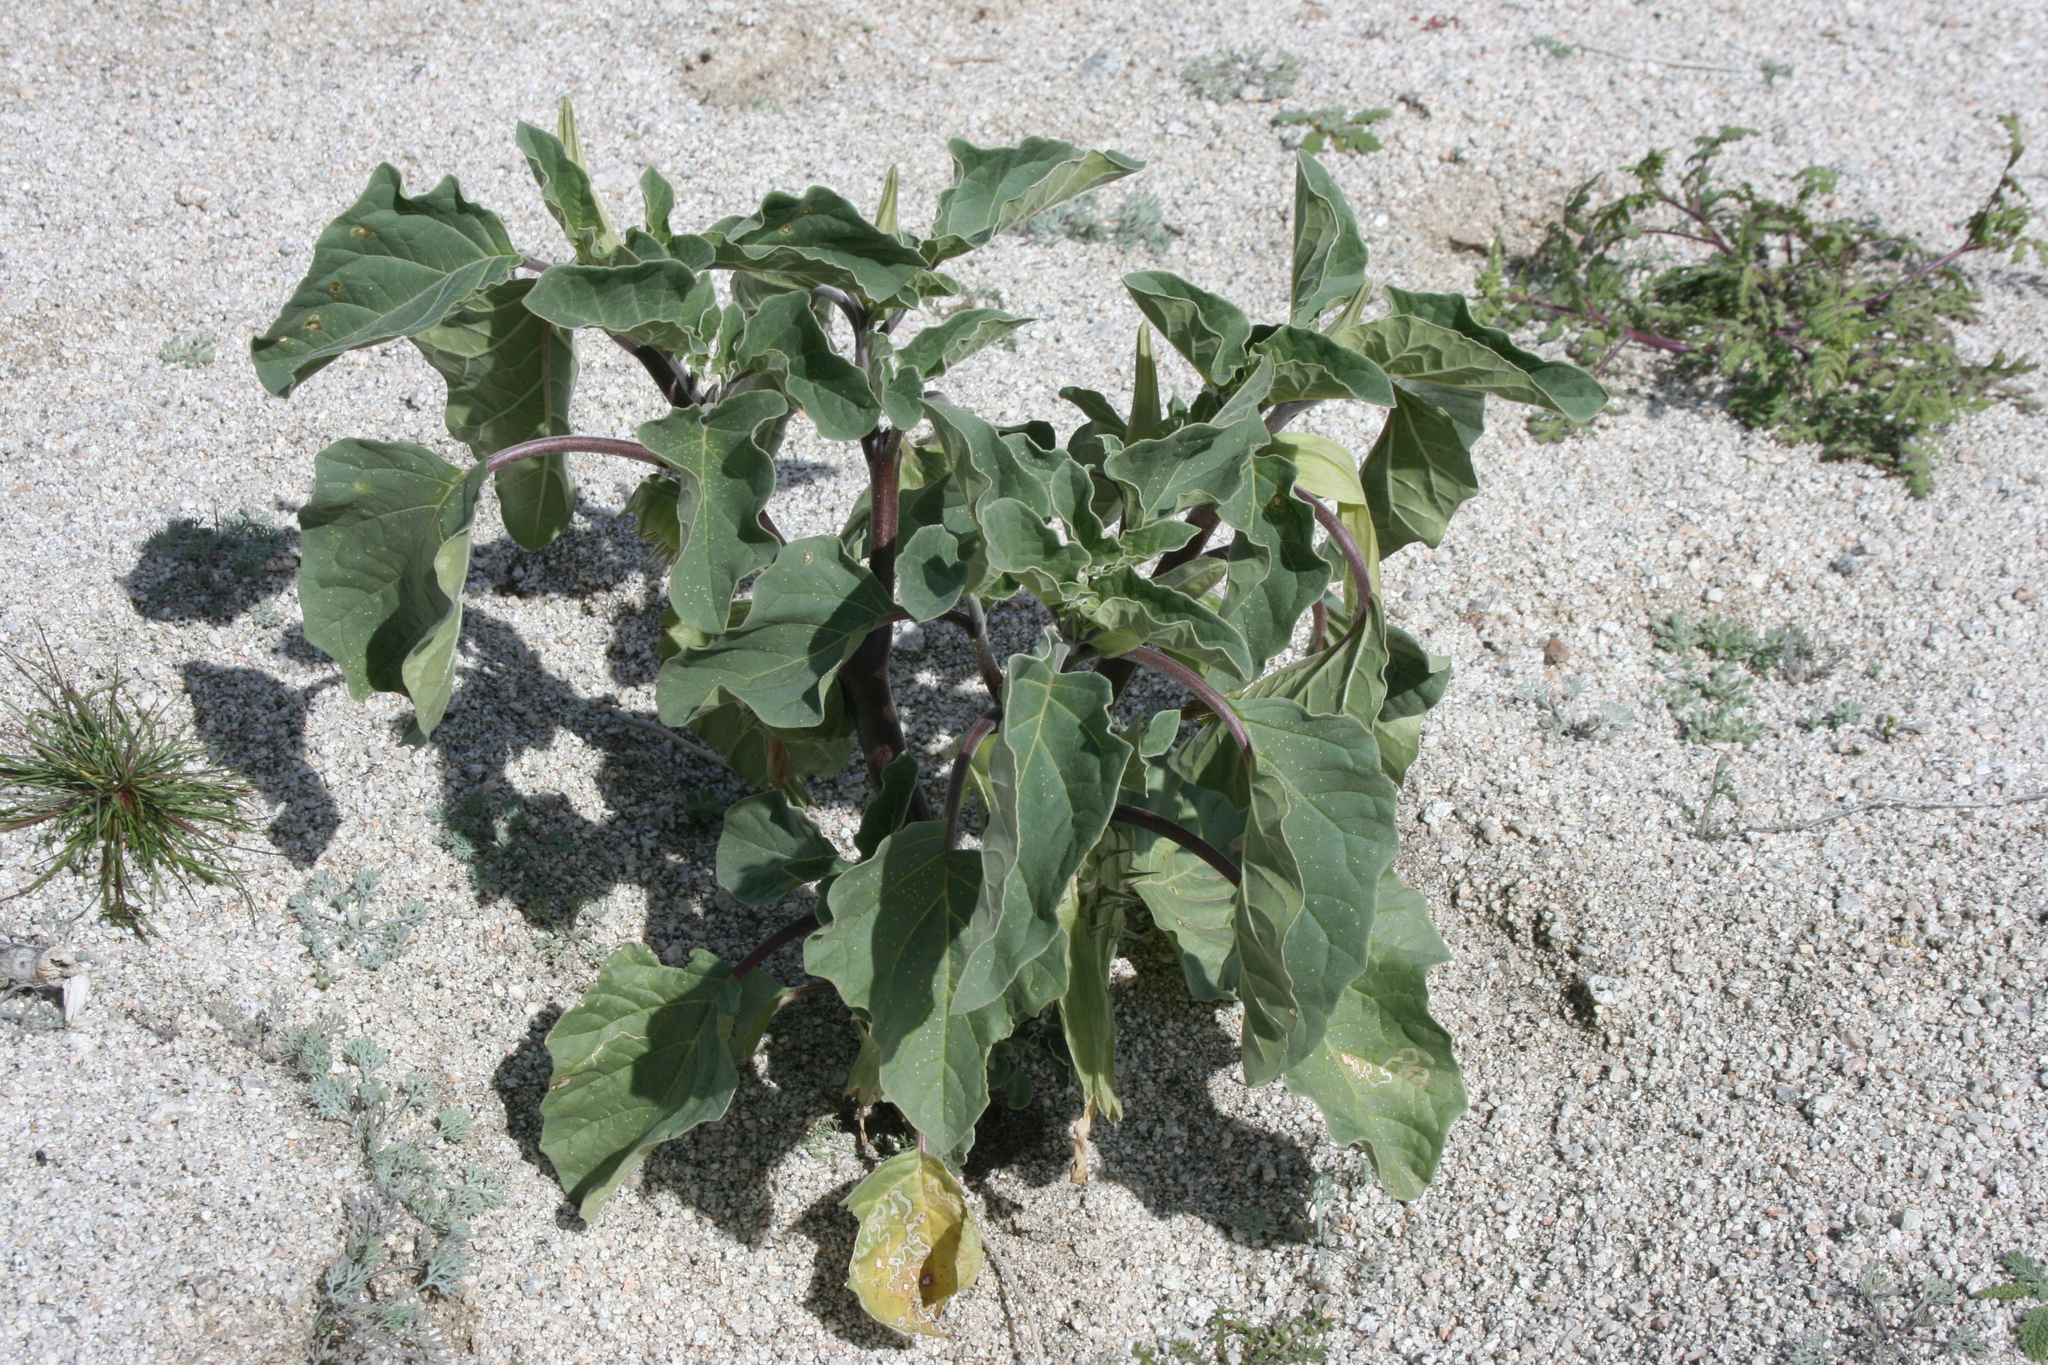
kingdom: Plantae
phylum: Tracheophyta
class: Magnoliopsida
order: Solanales
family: Solanaceae
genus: Datura
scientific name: Datura discolor
